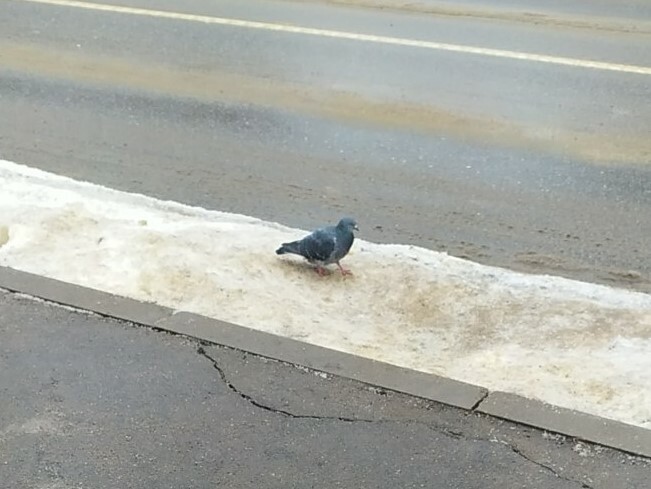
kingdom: Animalia
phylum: Chordata
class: Aves
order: Columbiformes
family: Columbidae
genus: Columba
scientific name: Columba livia
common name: Rock pigeon
